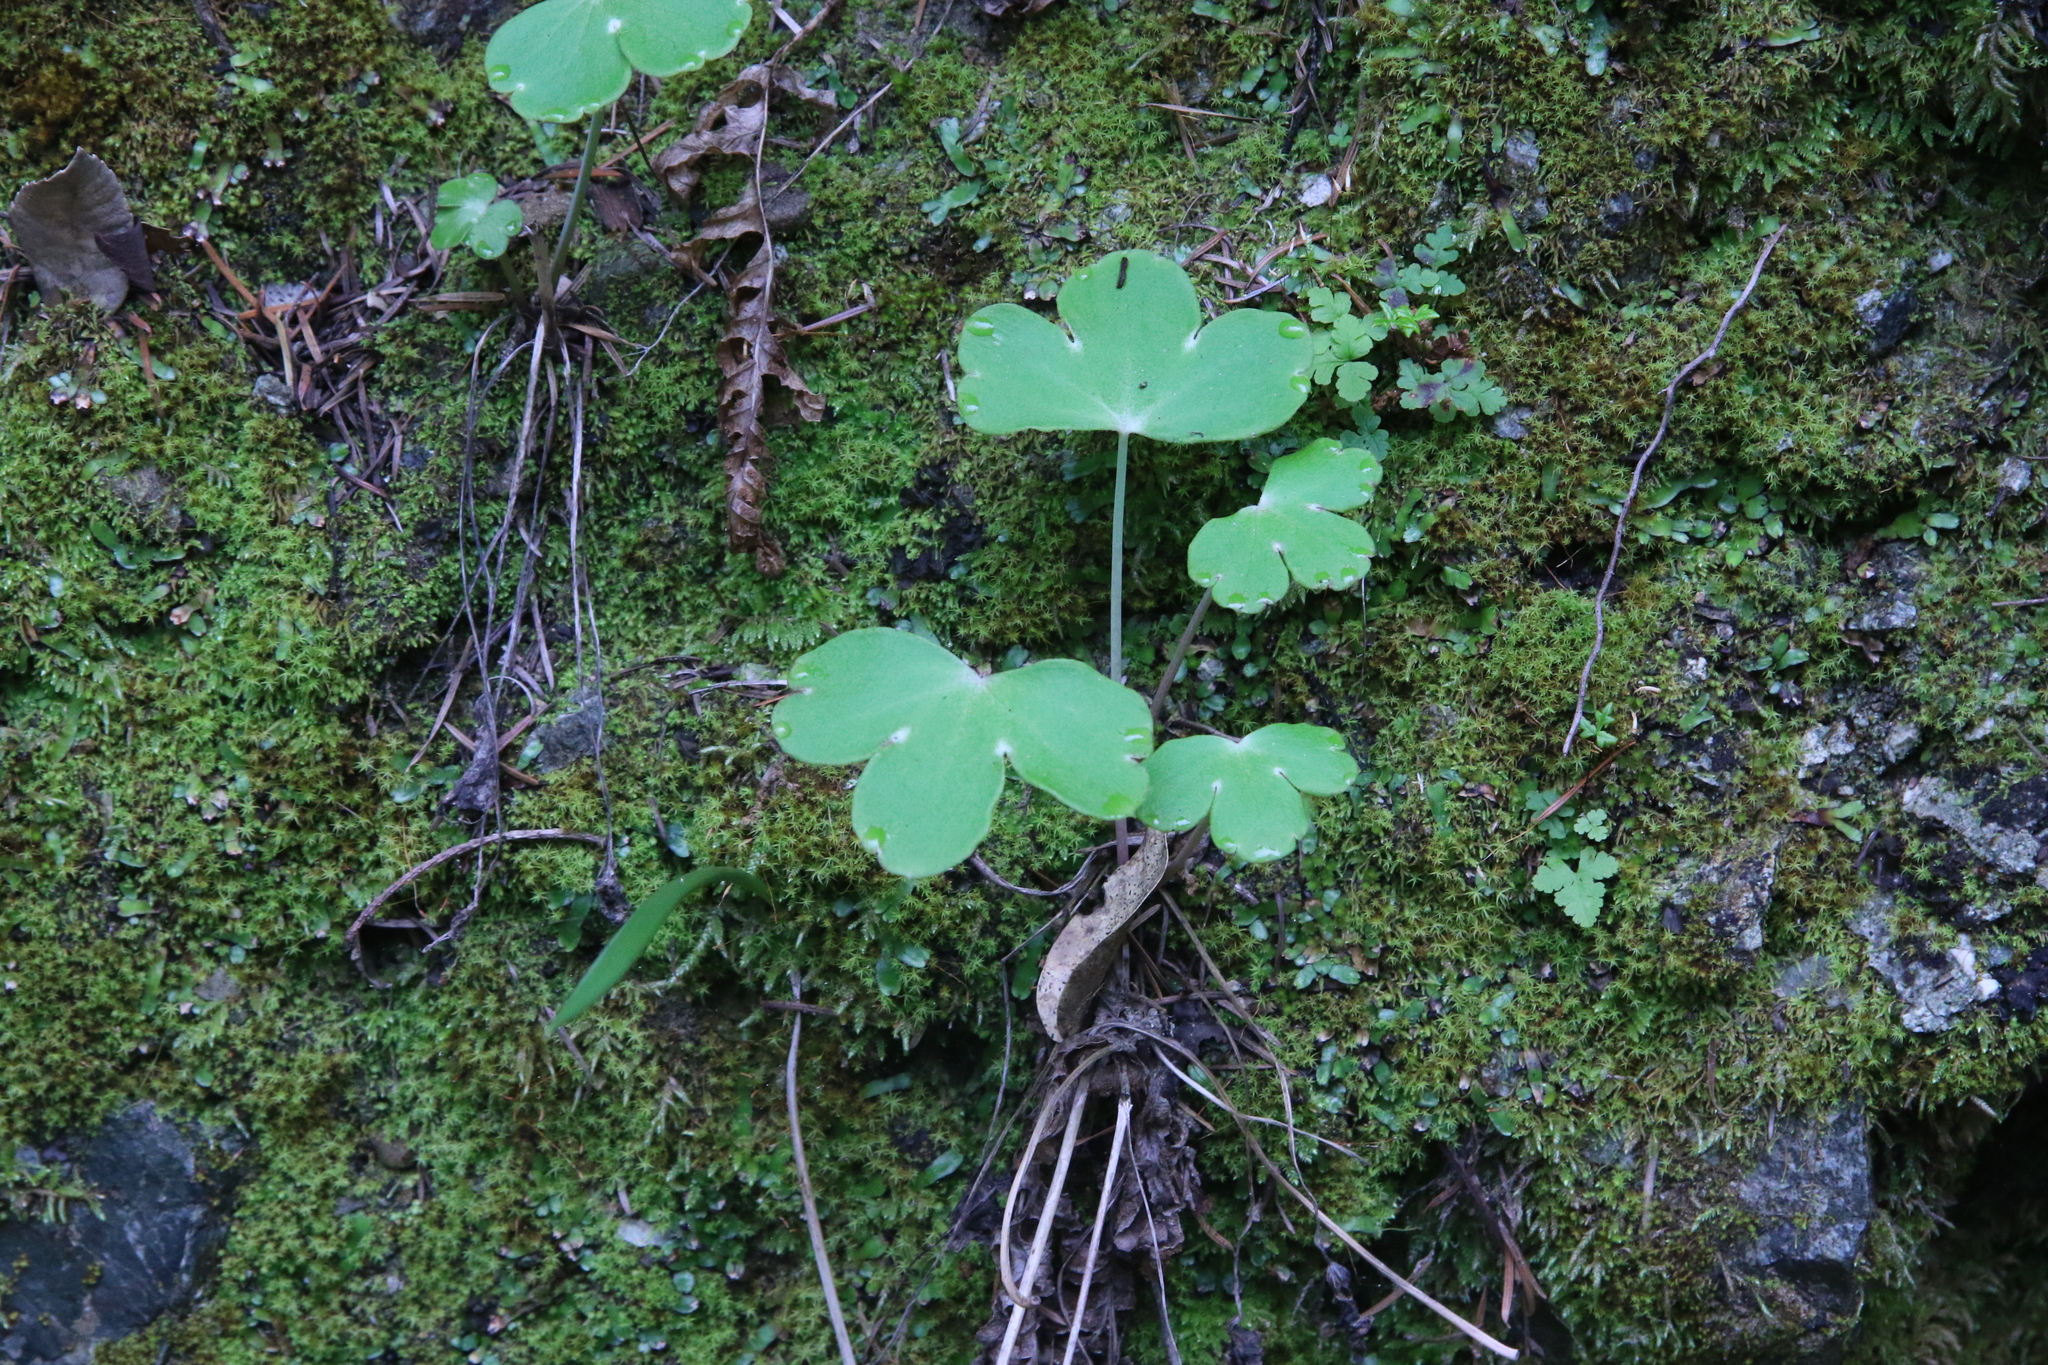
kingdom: Plantae
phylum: Tracheophyta
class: Magnoliopsida
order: Ranunculales
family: Ranunculaceae
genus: Delphinium
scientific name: Delphinium nudicaule
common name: Red larkspur
